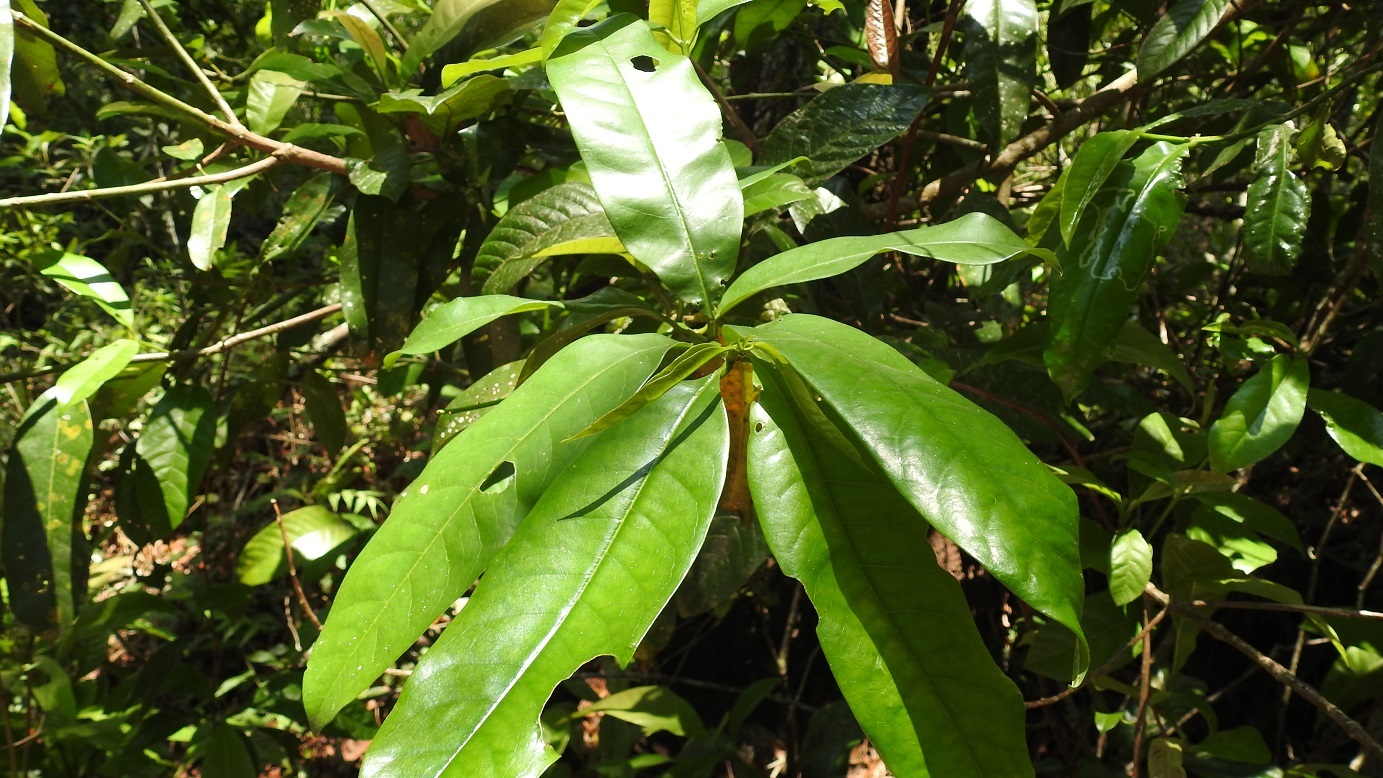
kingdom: Plantae
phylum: Tracheophyta
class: Magnoliopsida
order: Myrtales
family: Vochysiaceae
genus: Vochysia
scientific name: Vochysia guatemalensis
